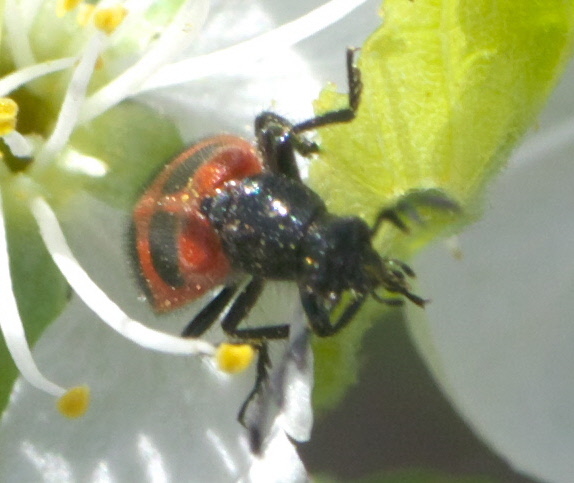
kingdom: Animalia
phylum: Arthropoda
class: Insecta
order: Coleoptera
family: Cleridae
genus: Pelonides
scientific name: Pelonides quadripunctatus
